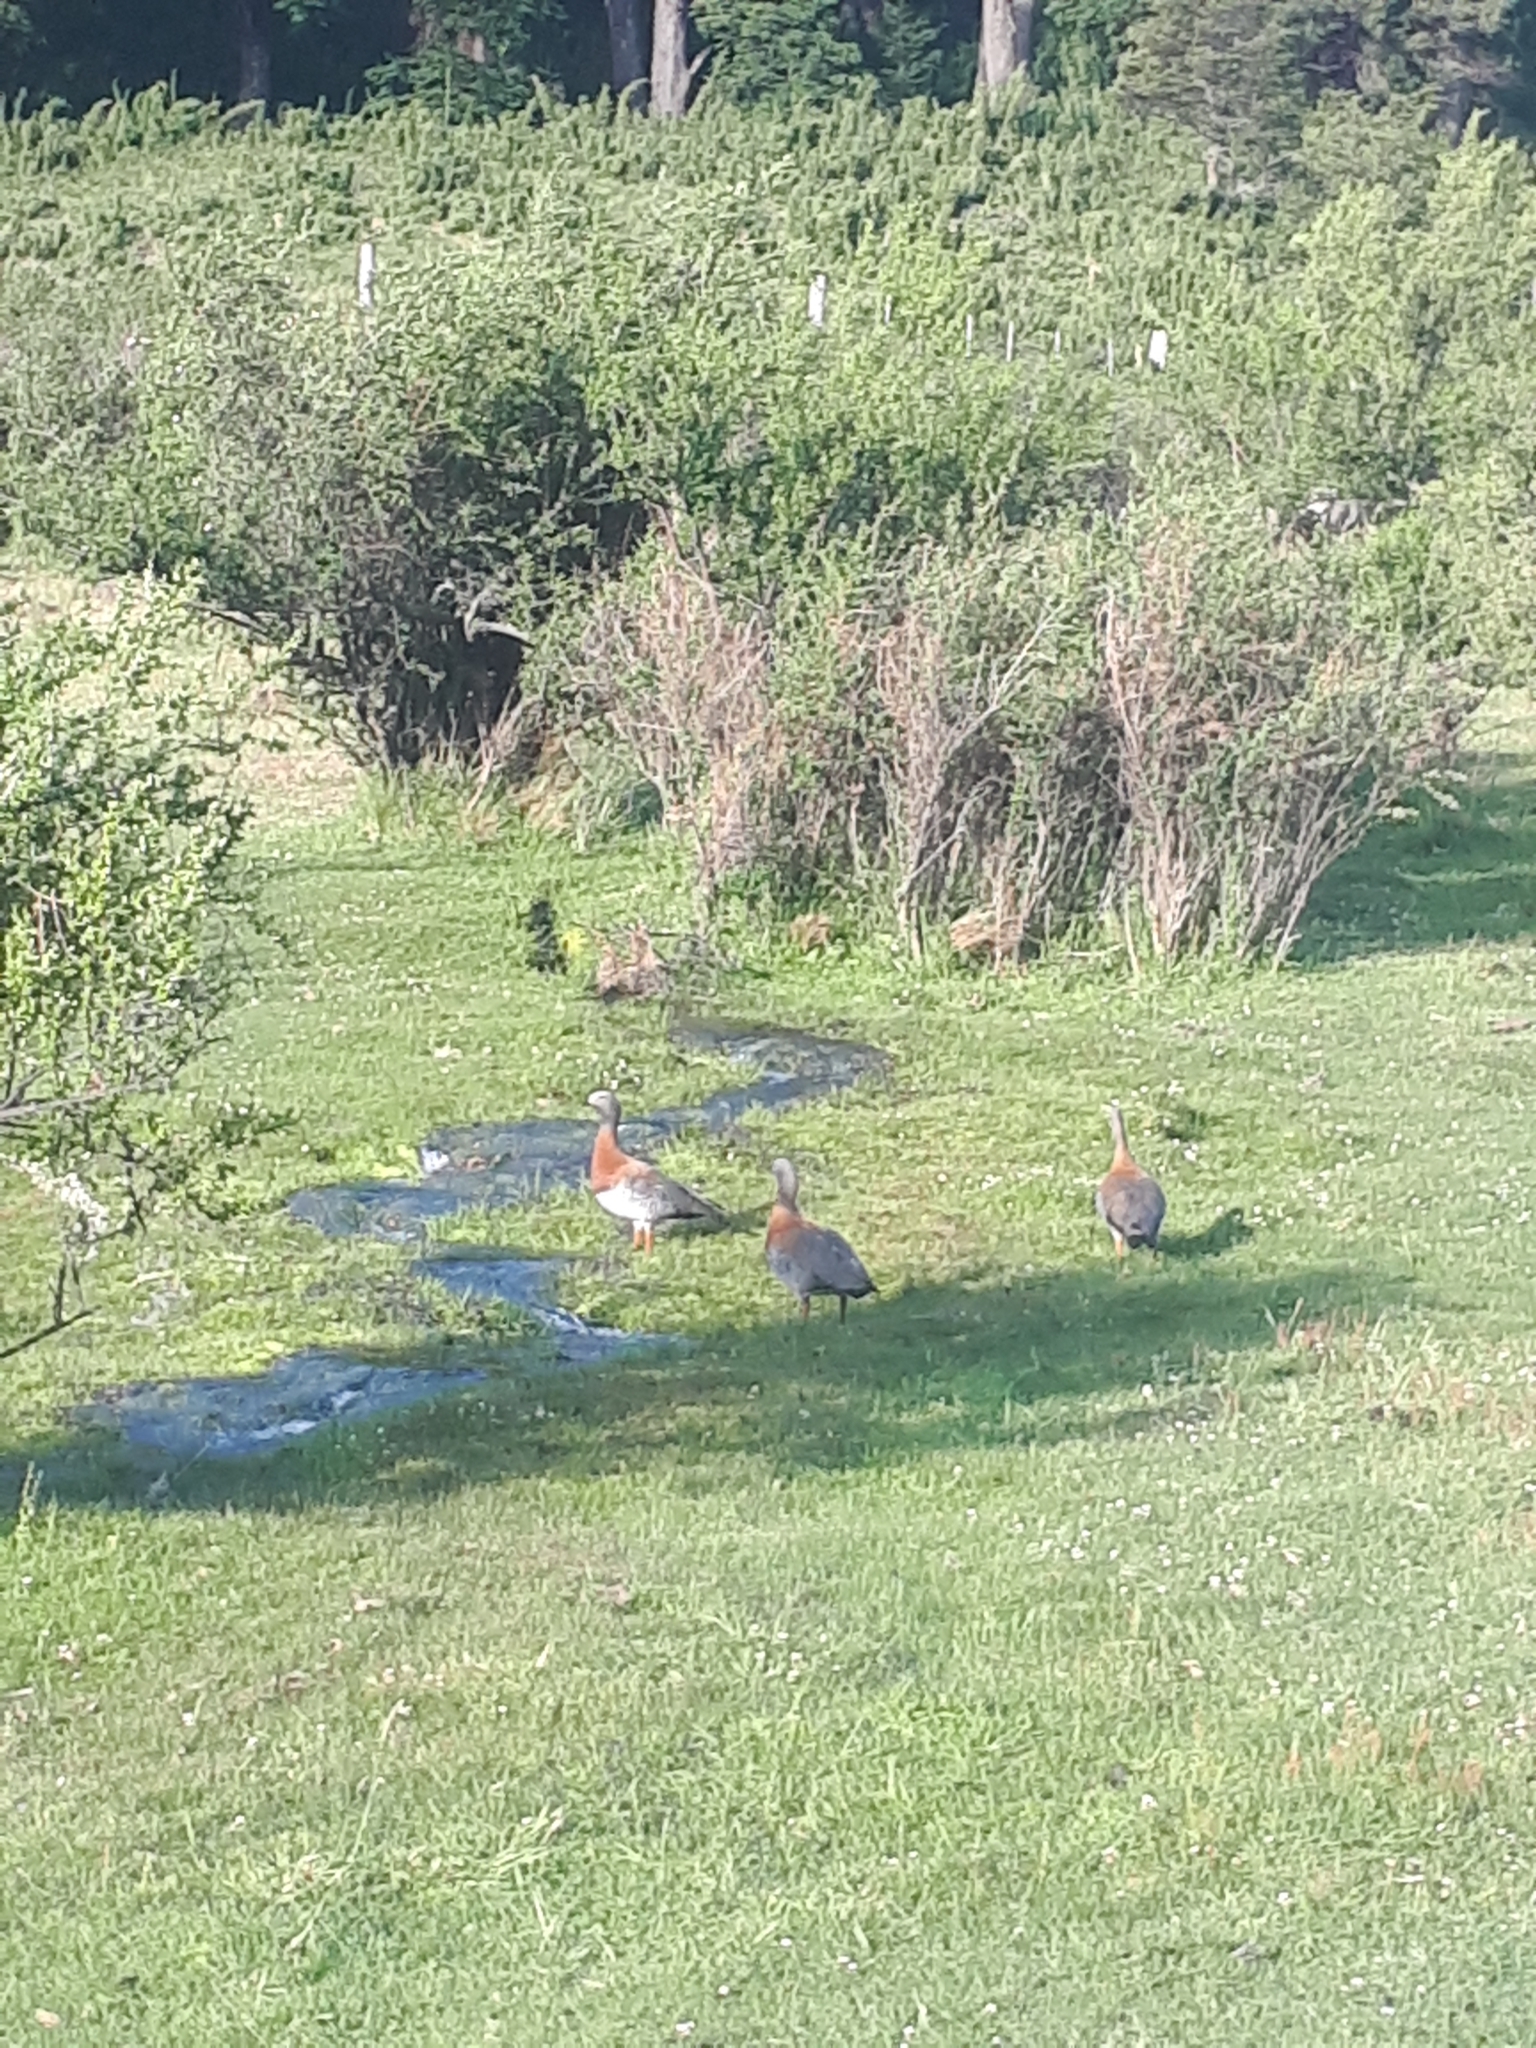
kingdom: Animalia
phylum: Chordata
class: Aves
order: Anseriformes
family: Anatidae
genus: Chloephaga
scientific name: Chloephaga poliocephala
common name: Ashy-headed goose
